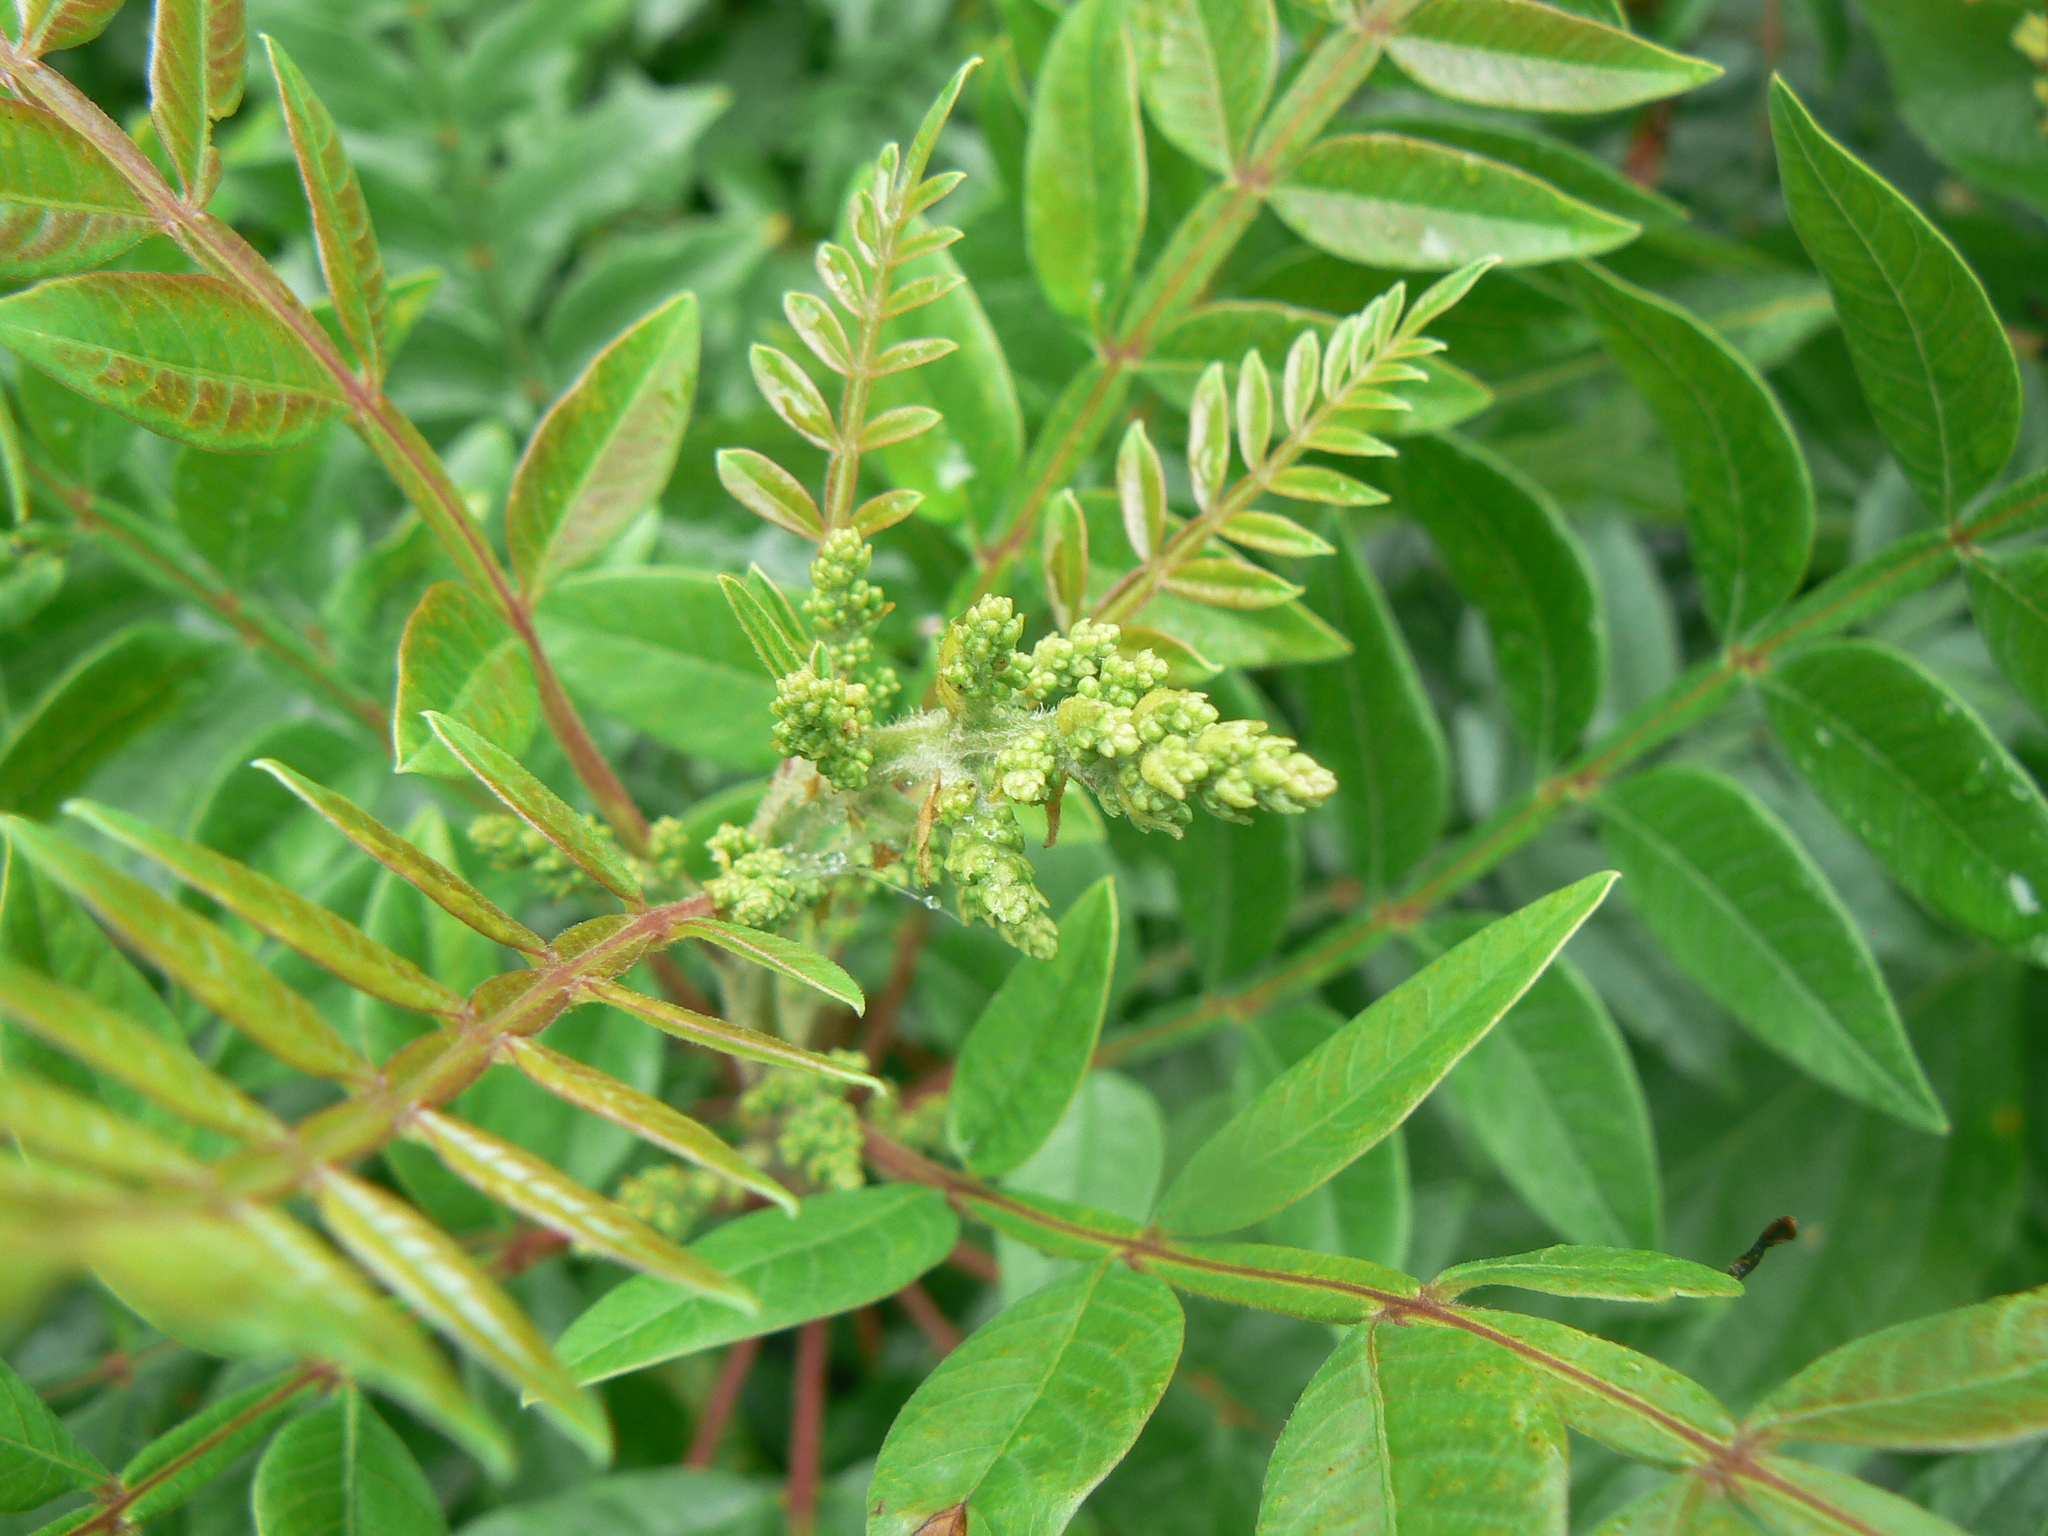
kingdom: Plantae
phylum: Tracheophyta
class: Magnoliopsida
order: Sapindales
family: Anacardiaceae
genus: Rhus
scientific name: Rhus copallina
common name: Shining sumac
